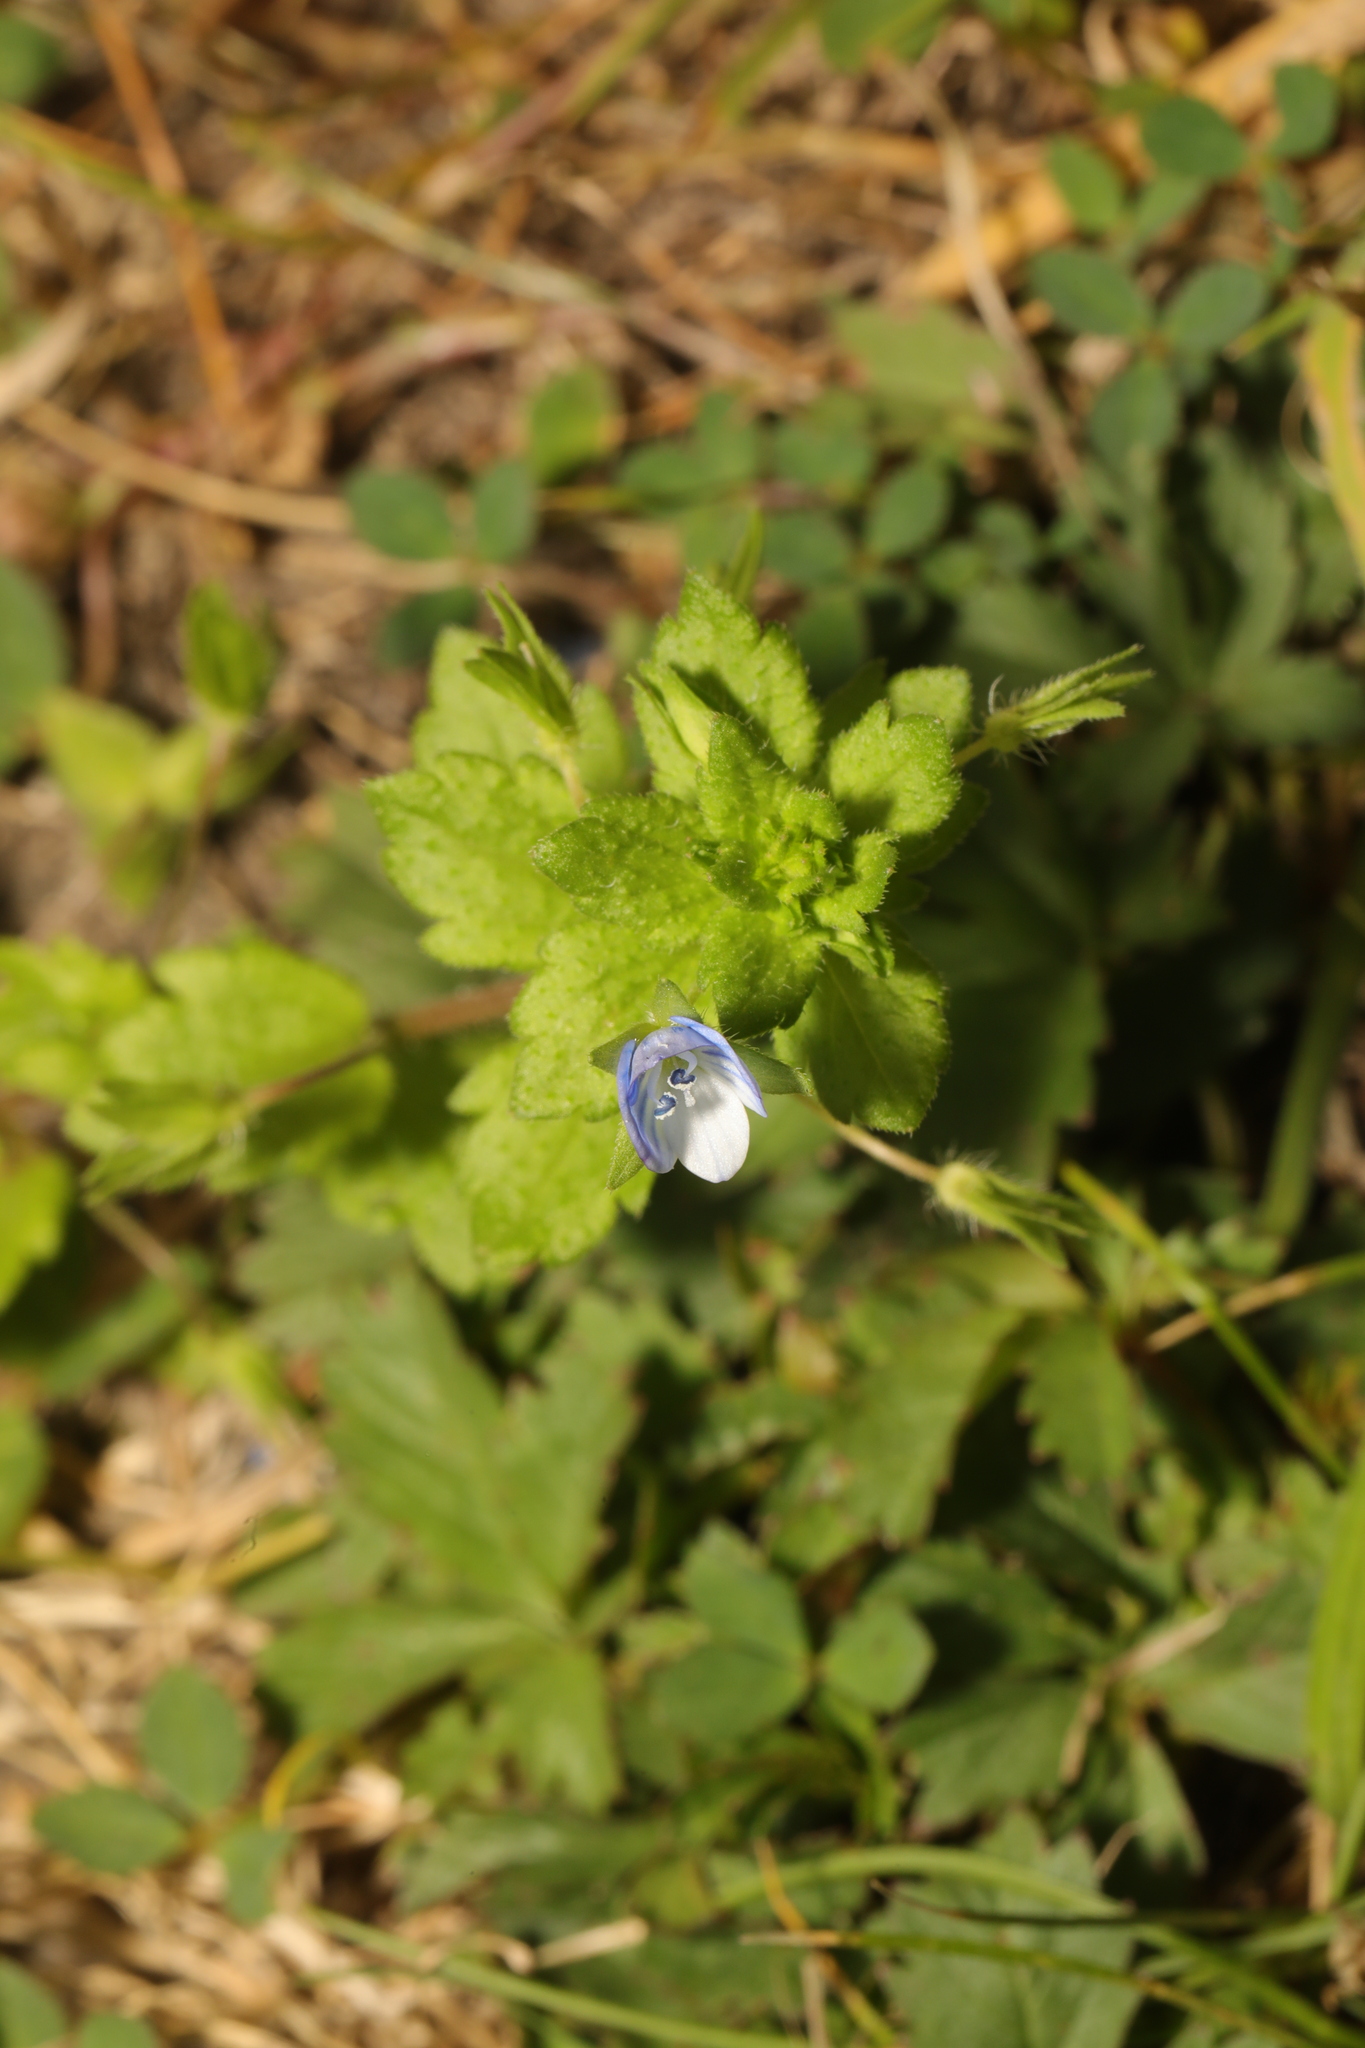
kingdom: Plantae
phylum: Tracheophyta
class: Magnoliopsida
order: Lamiales
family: Plantaginaceae
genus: Veronica
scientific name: Veronica persica
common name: Common field-speedwell
